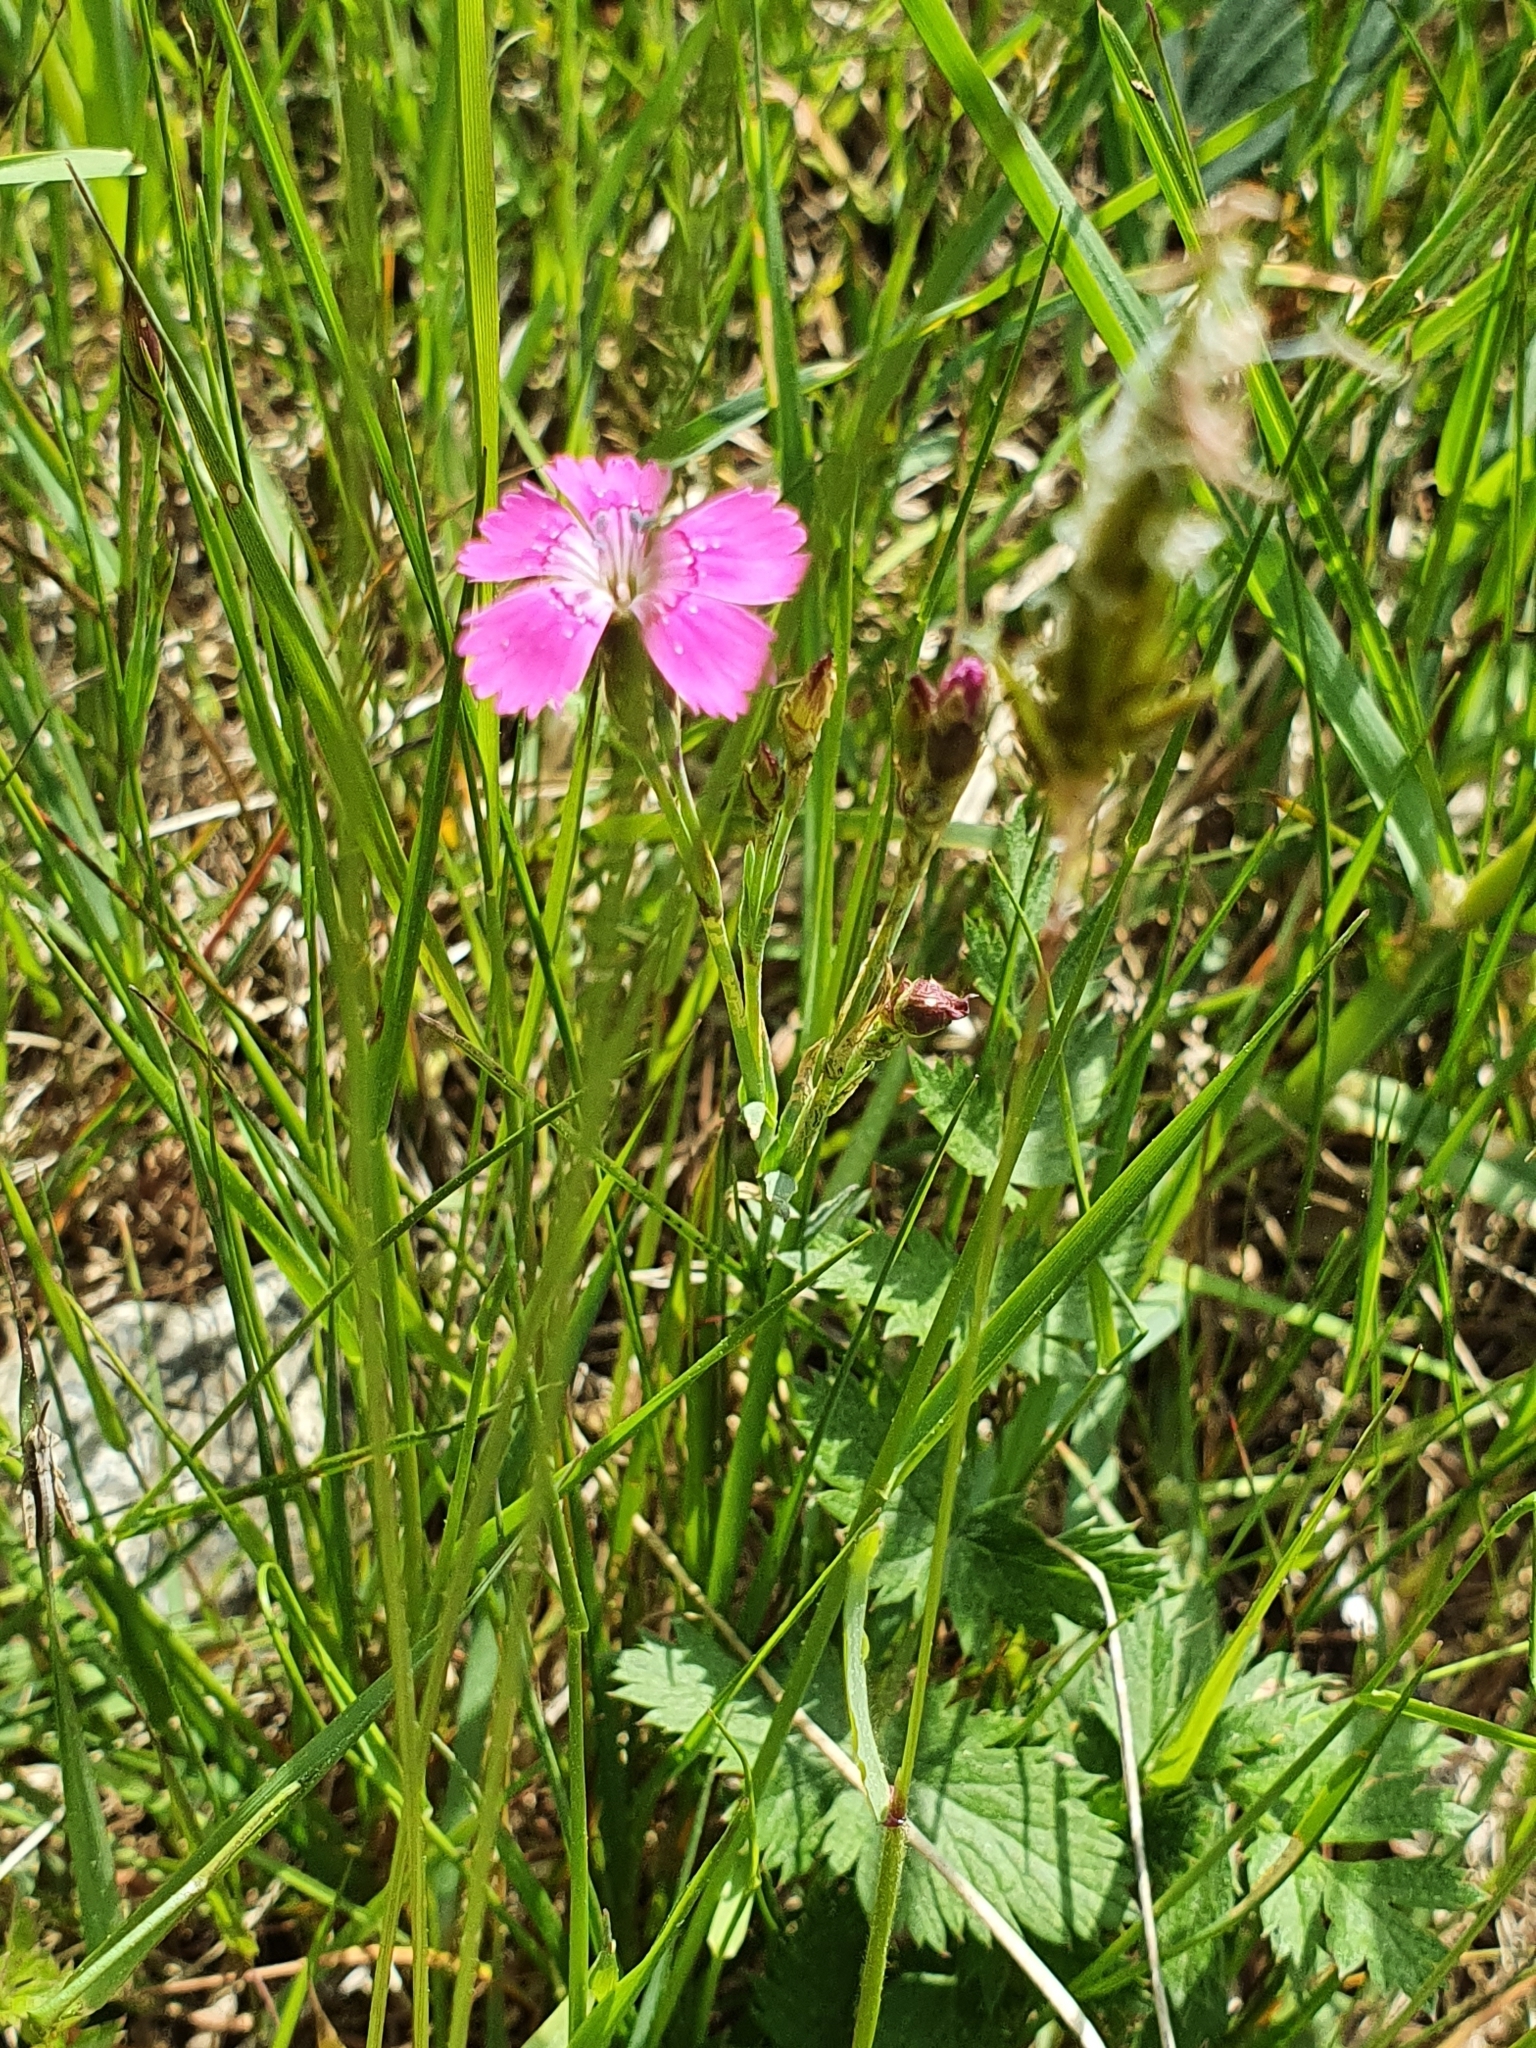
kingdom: Plantae
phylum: Tracheophyta
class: Magnoliopsida
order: Caryophyllales
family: Caryophyllaceae
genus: Dianthus
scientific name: Dianthus deltoides
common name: Maiden pink
